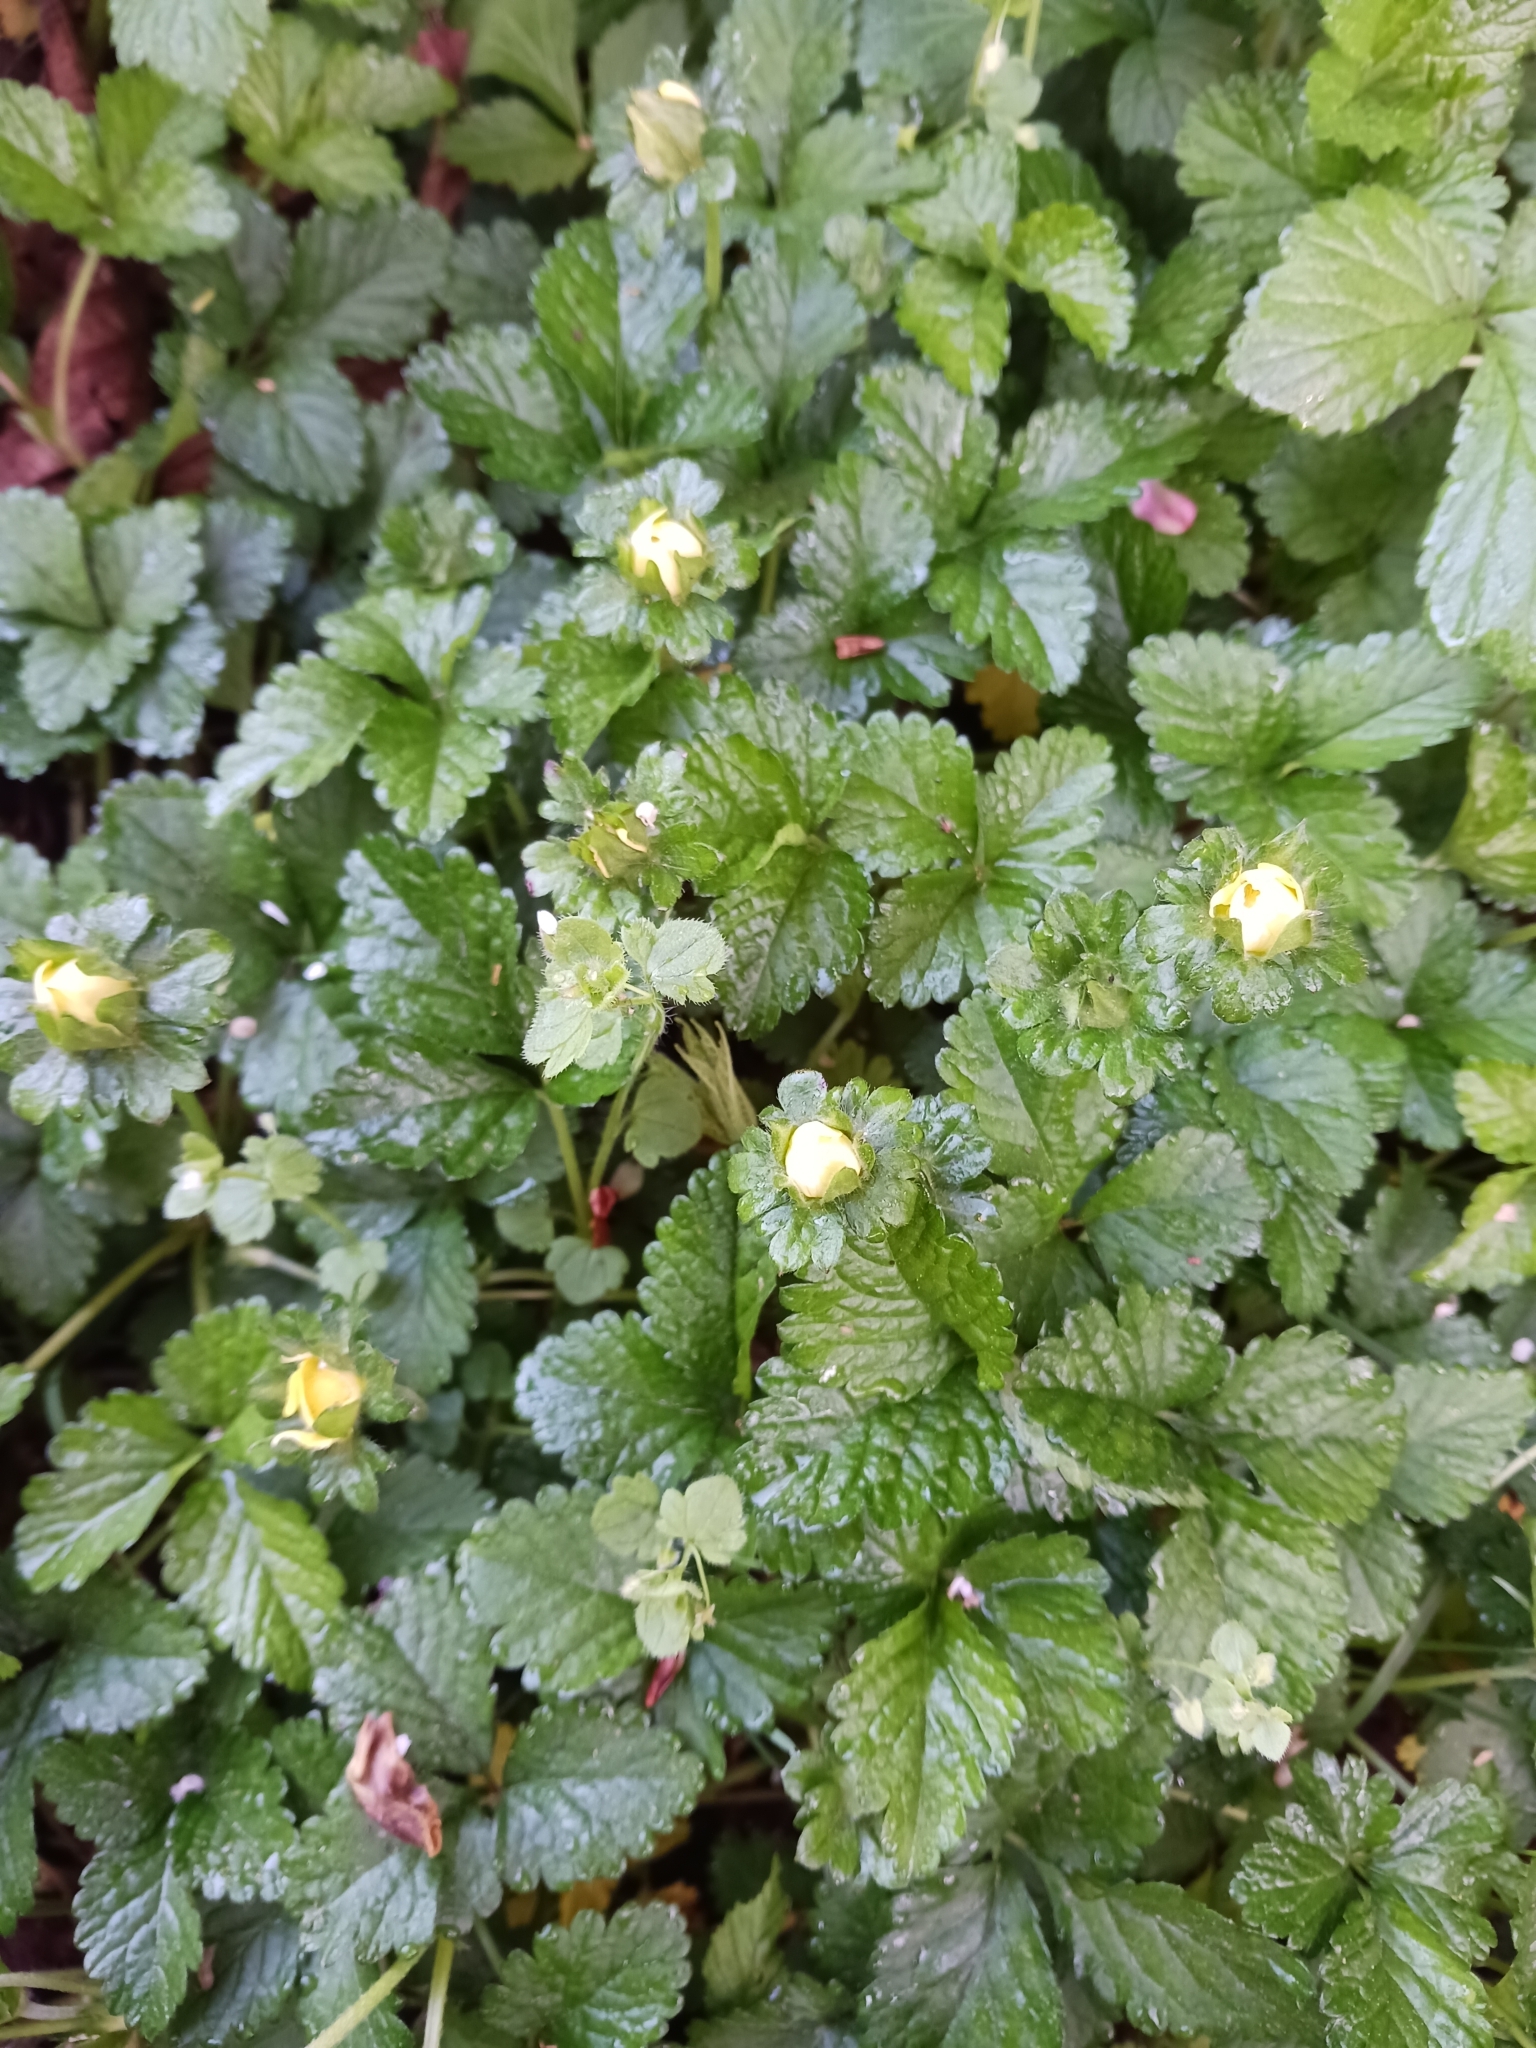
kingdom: Plantae
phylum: Tracheophyta
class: Magnoliopsida
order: Rosales
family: Rosaceae
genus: Potentilla
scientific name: Potentilla indica
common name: Yellow-flowered strawberry
